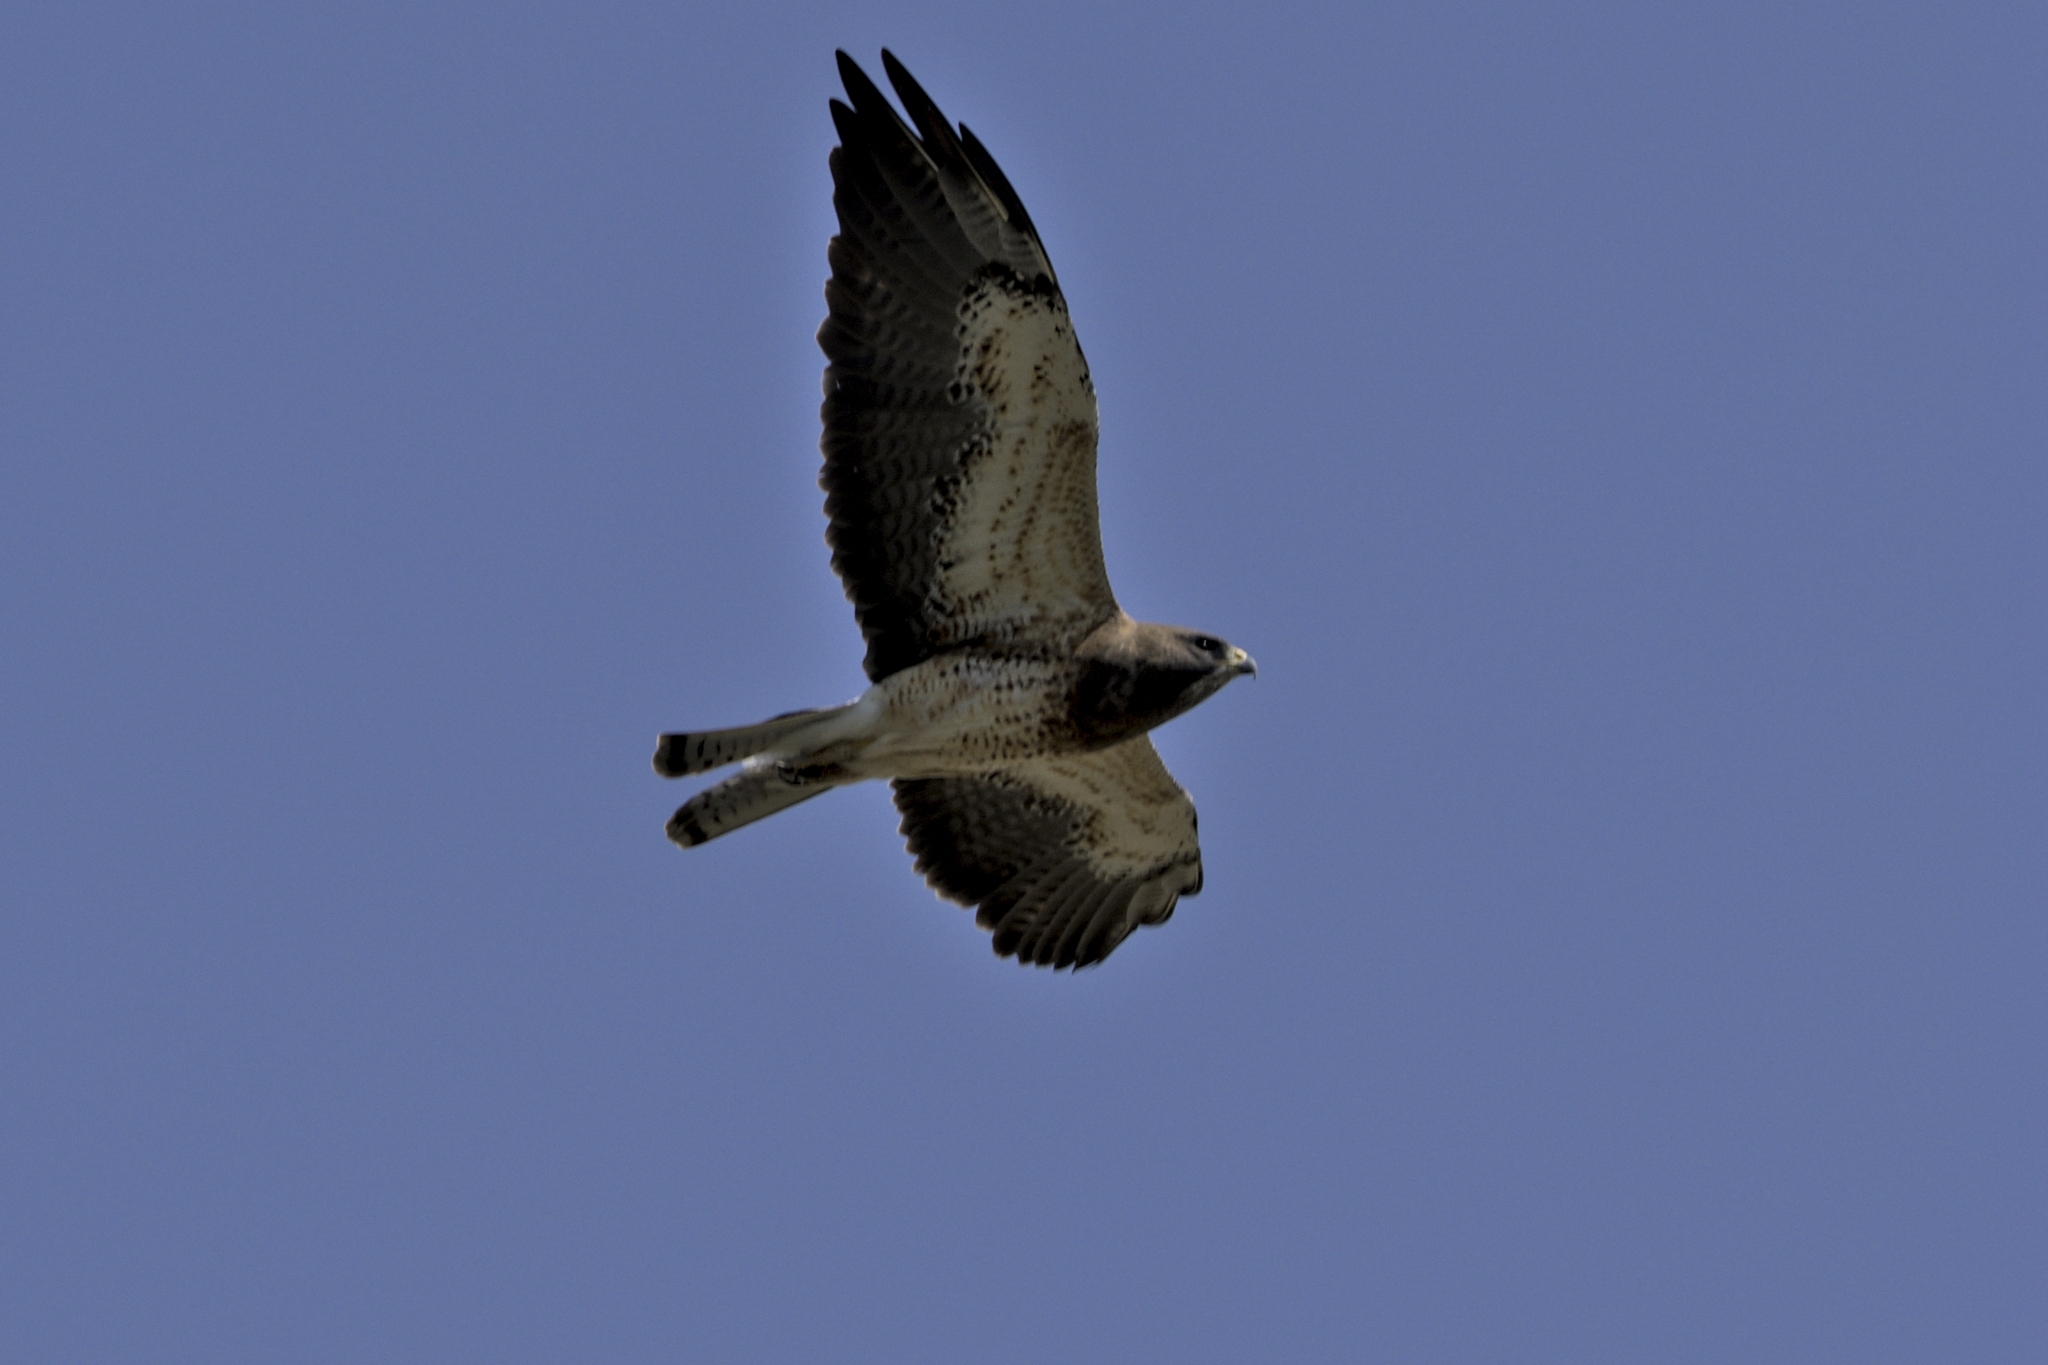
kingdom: Animalia
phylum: Chordata
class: Aves
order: Accipitriformes
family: Accipitridae
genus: Buteo
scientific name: Buteo swainsoni
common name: Swainson's hawk
